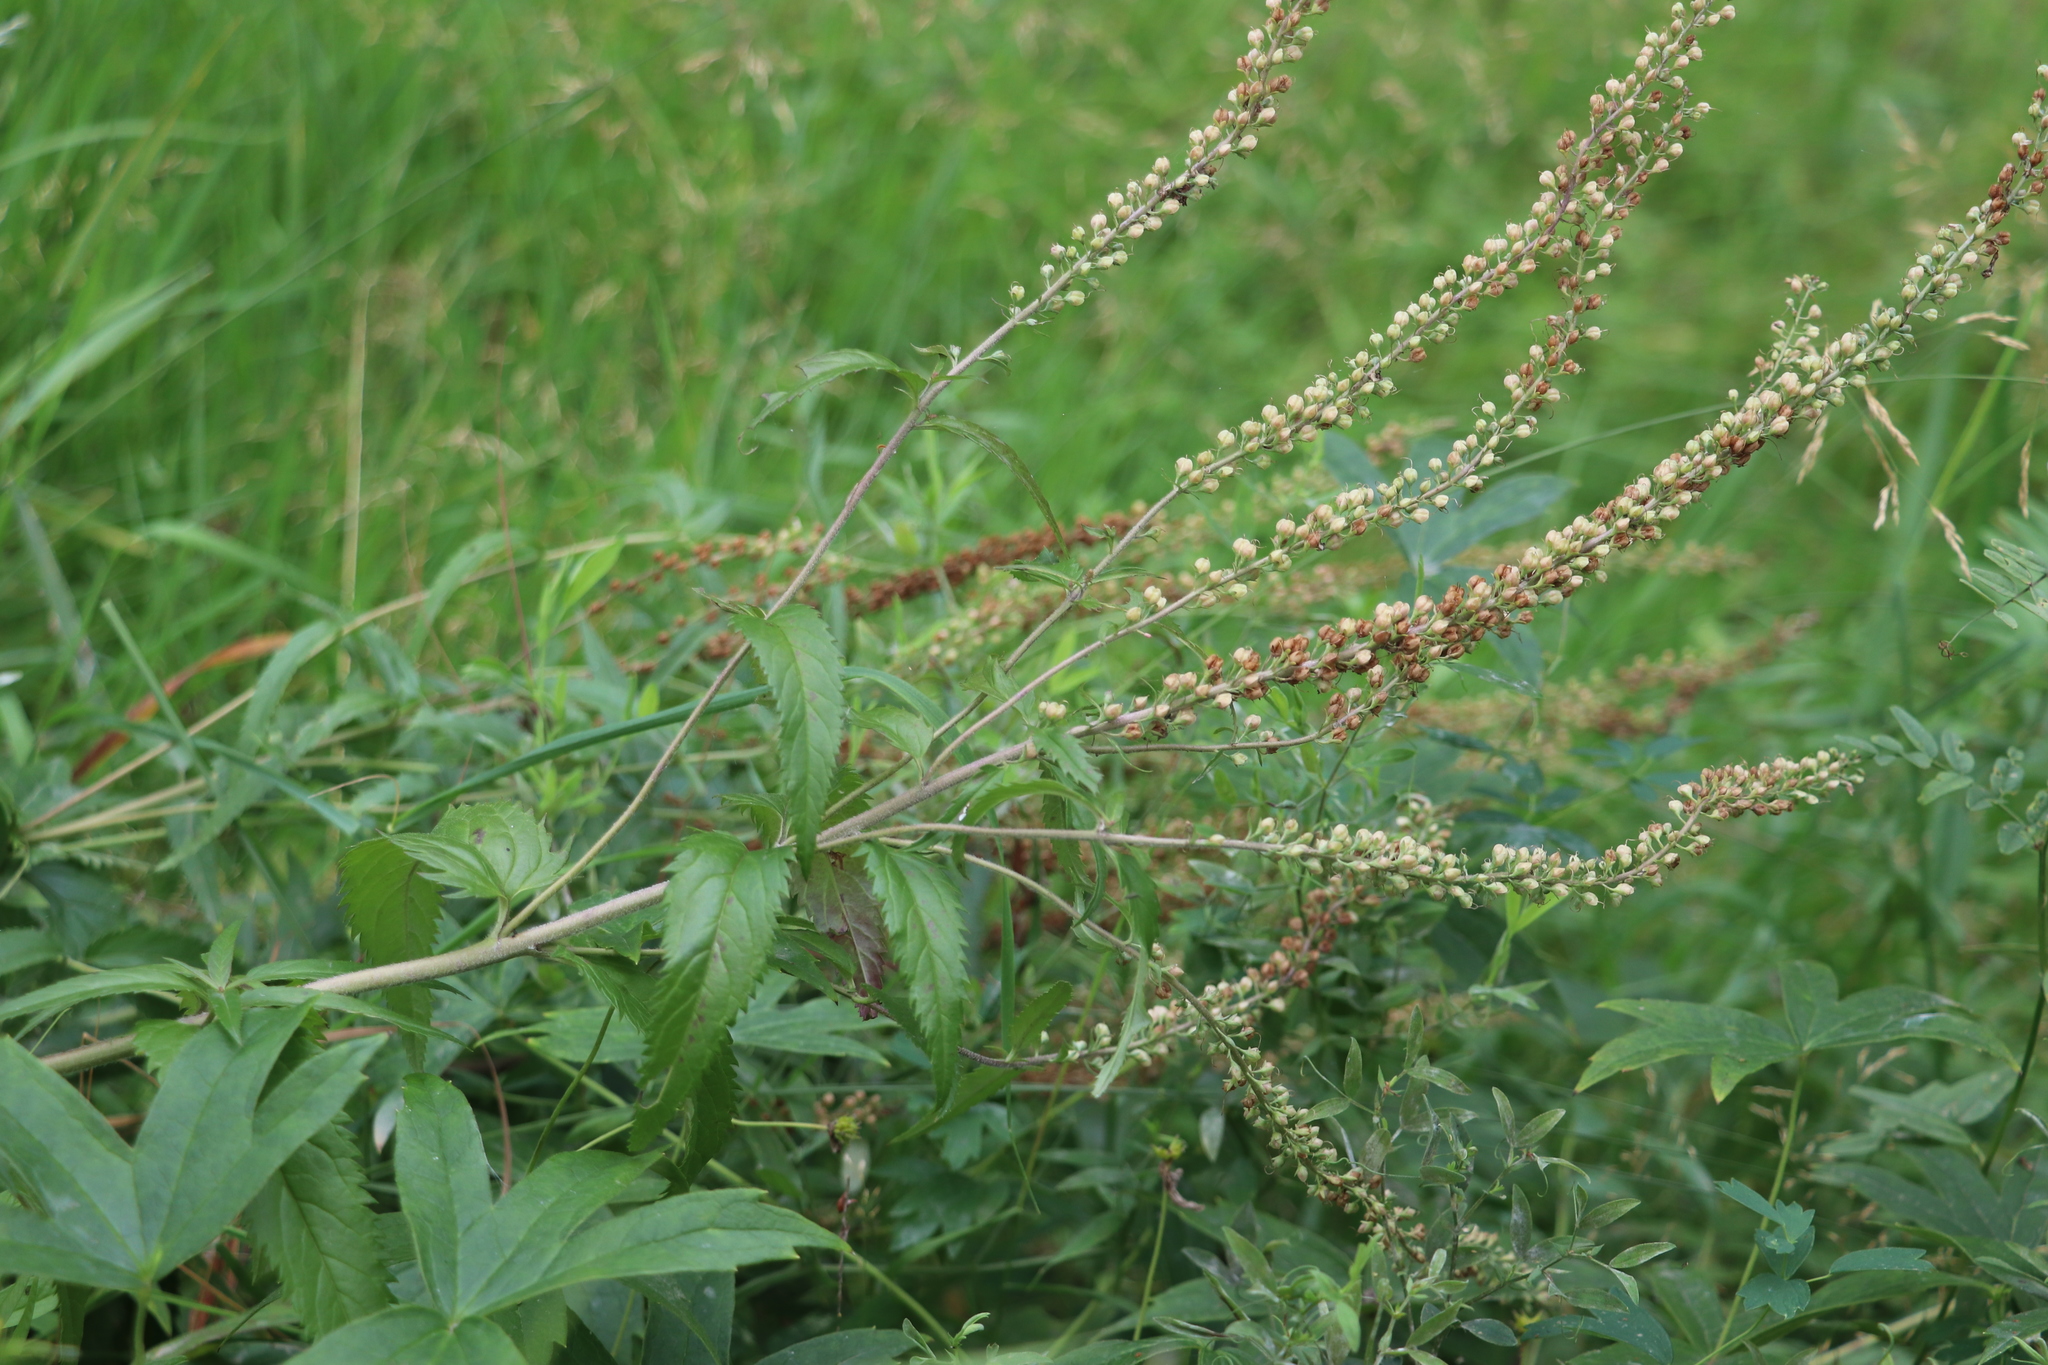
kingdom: Plantae
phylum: Tracheophyta
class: Magnoliopsida
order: Lamiales
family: Plantaginaceae
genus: Veronica
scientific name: Veronica longifolia
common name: Garden speedwell
